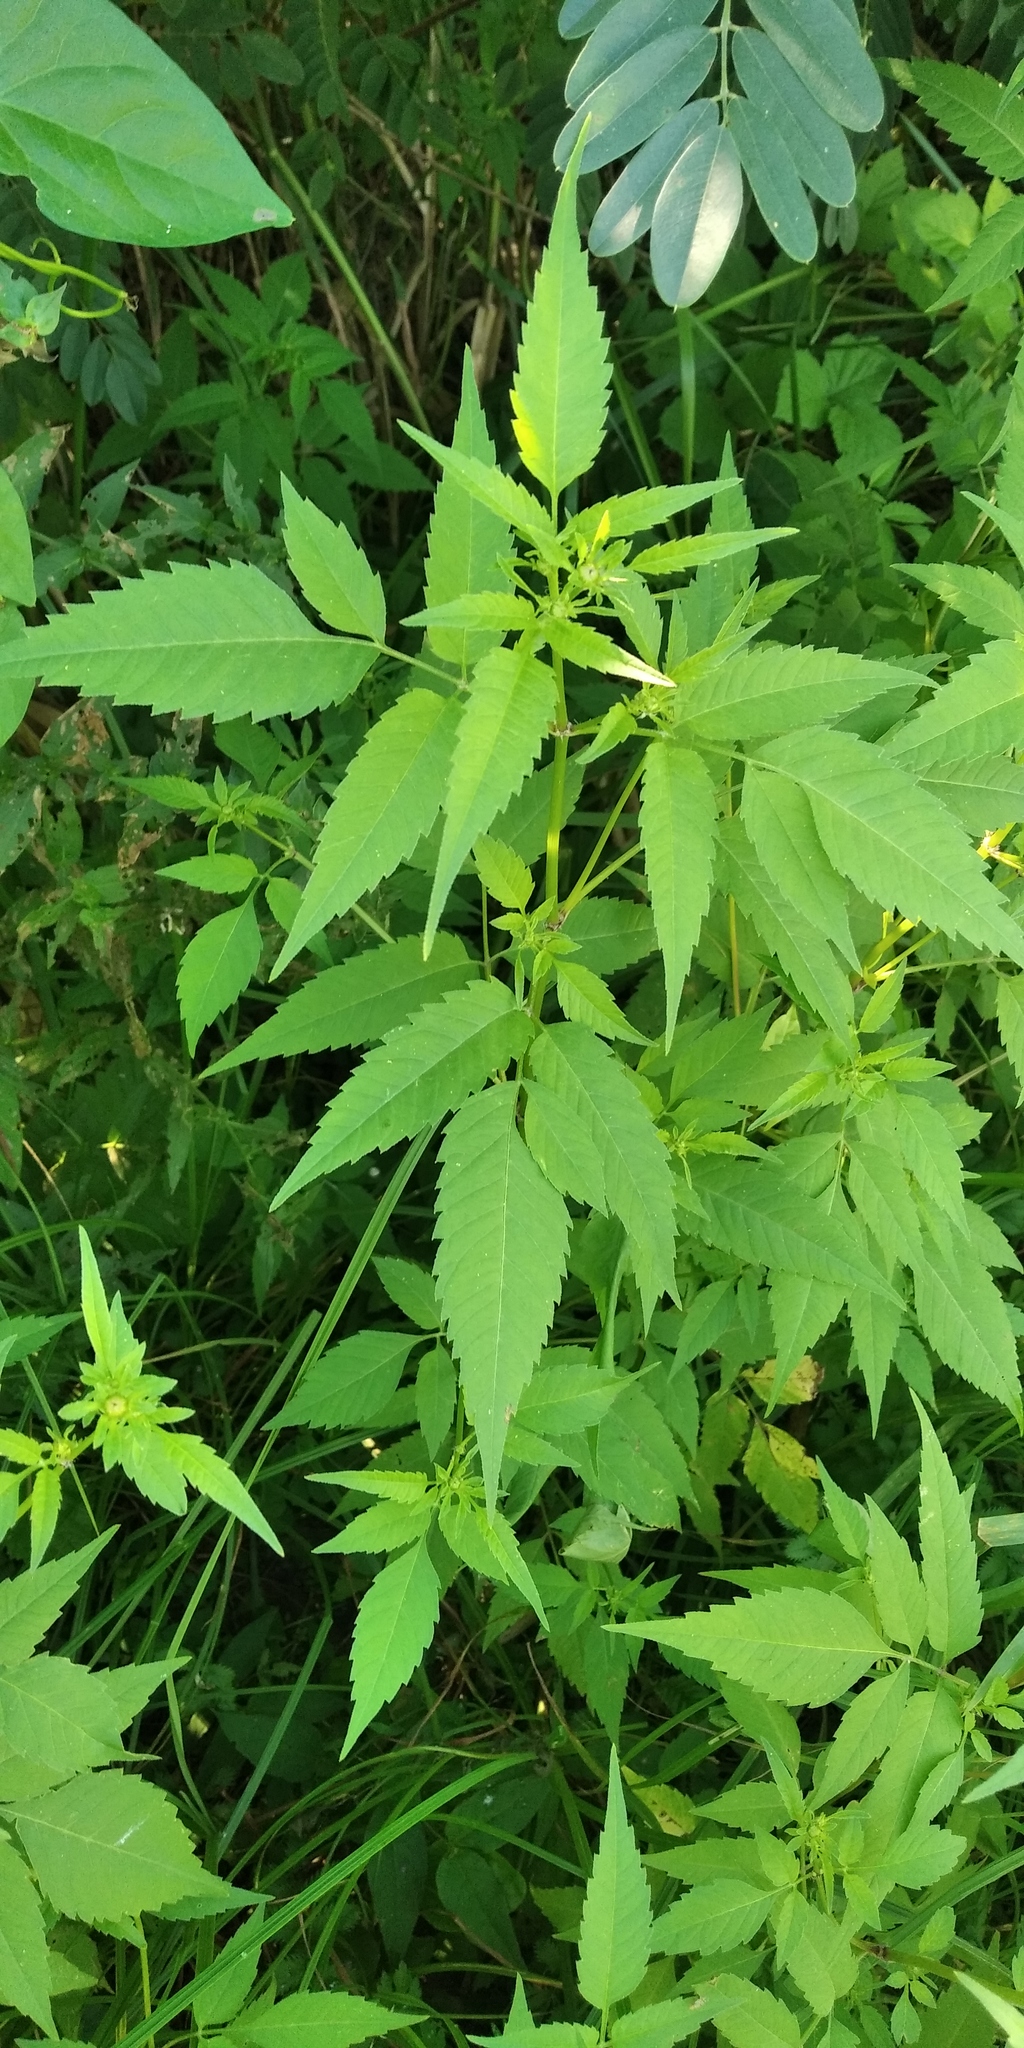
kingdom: Plantae
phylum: Tracheophyta
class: Magnoliopsida
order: Asterales
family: Asteraceae
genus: Bidens
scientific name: Bidens frondosa
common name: Beggarticks
